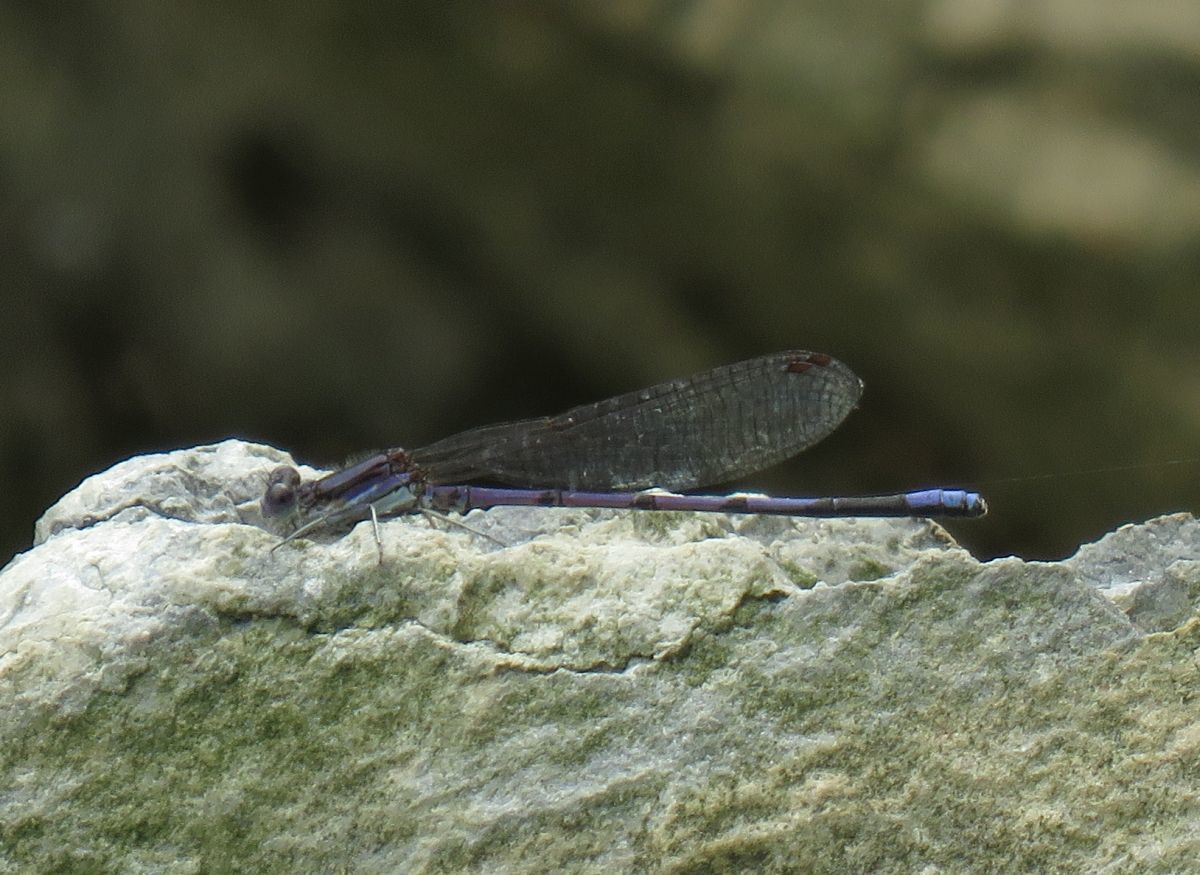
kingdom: Animalia
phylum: Arthropoda
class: Insecta
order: Odonata
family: Coenagrionidae
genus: Argia
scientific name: Argia fumipennis
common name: Variable dancer
